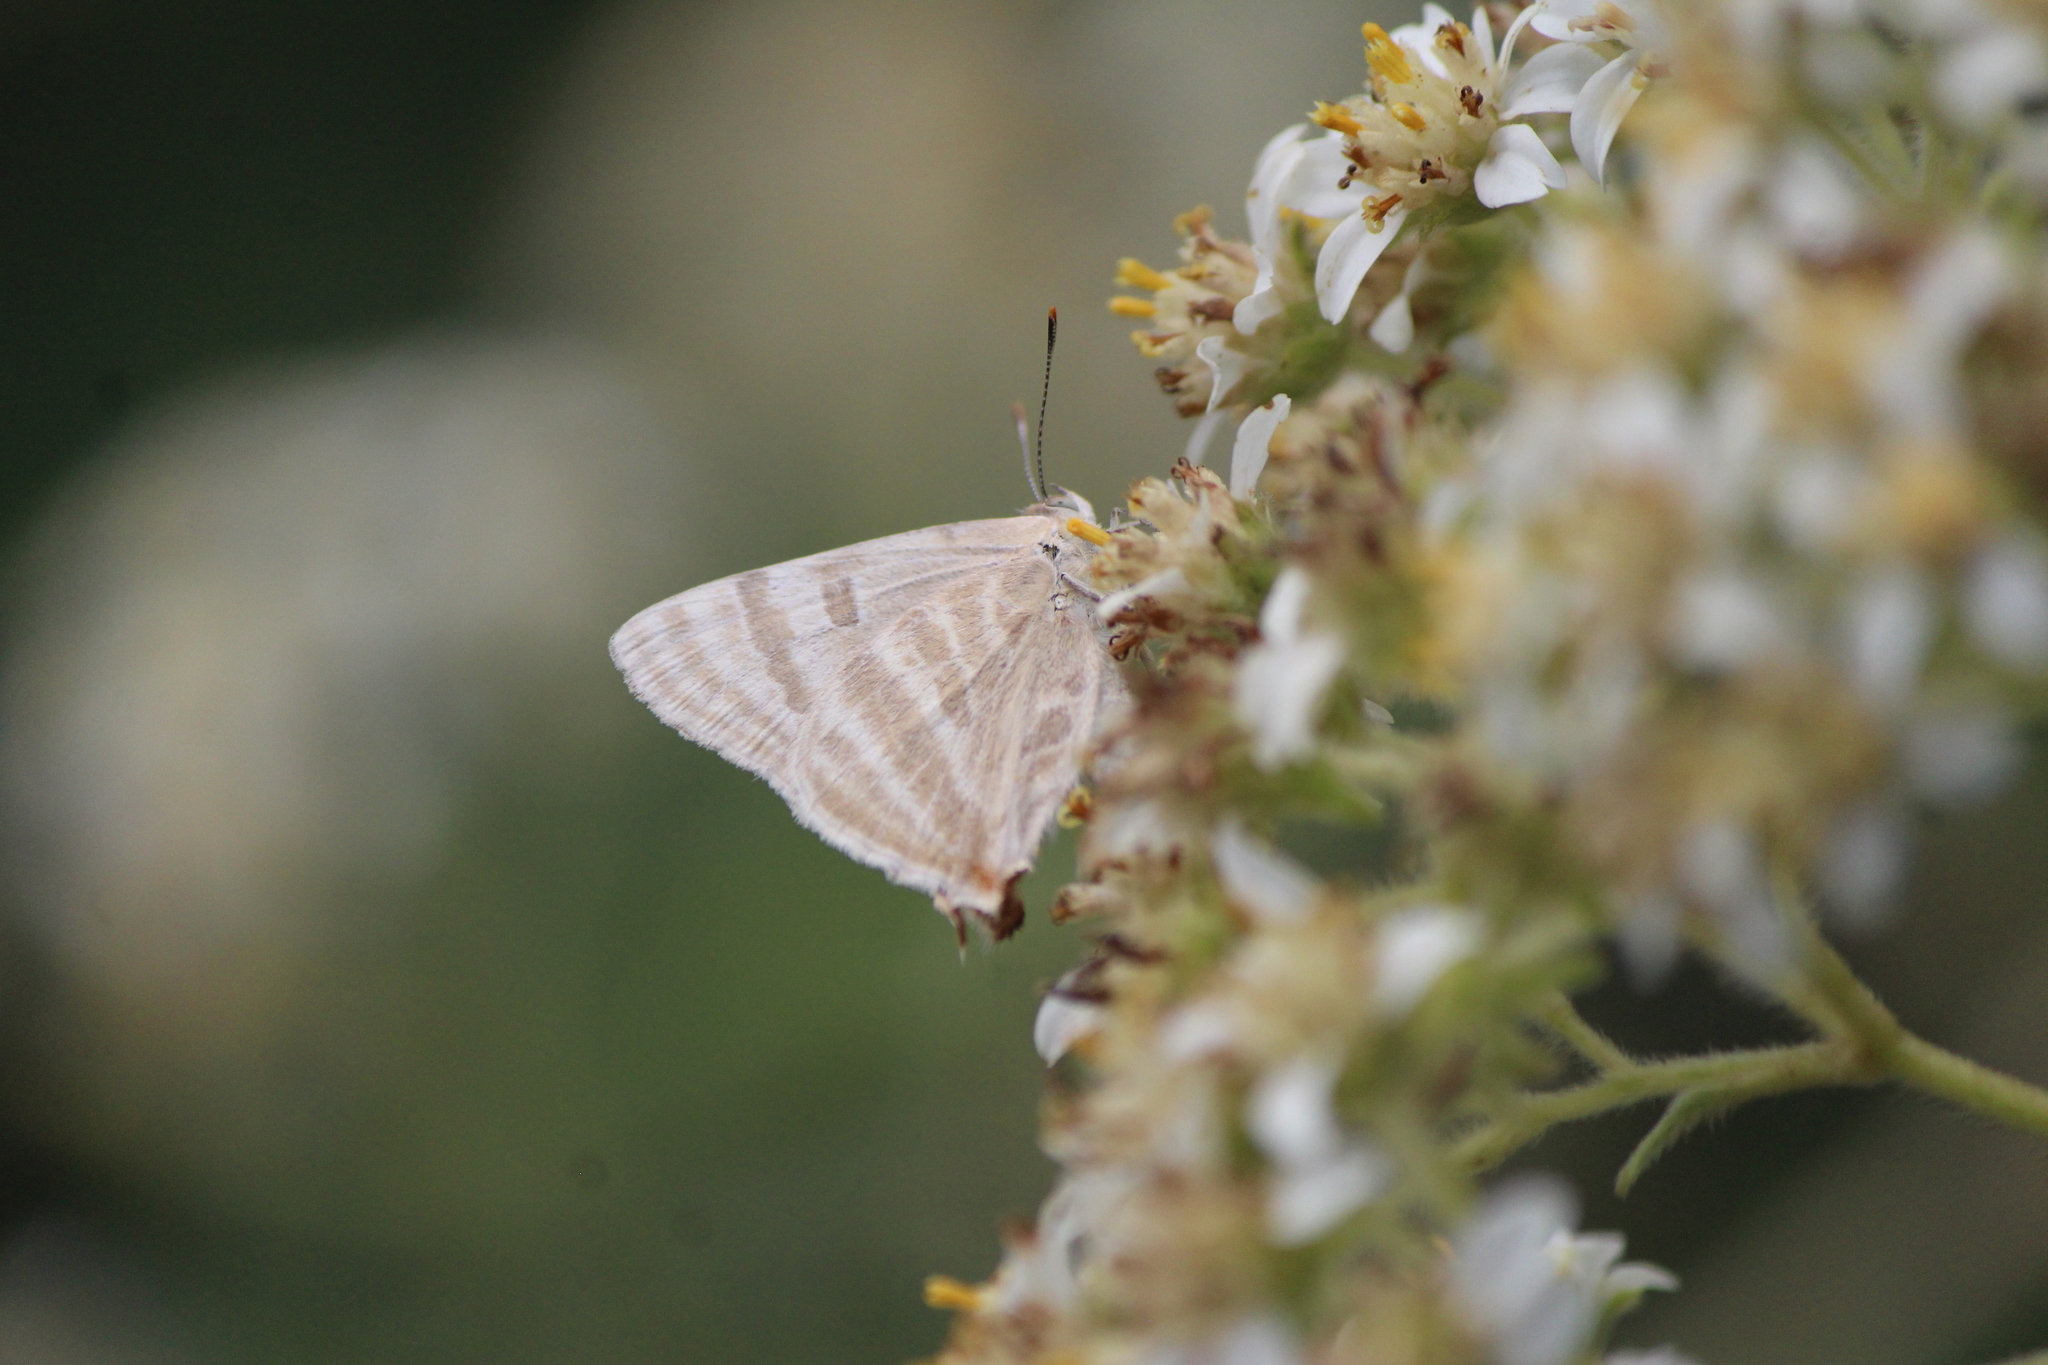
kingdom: Animalia
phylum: Arthropoda
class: Insecta
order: Lepidoptera
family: Lycaenidae
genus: Dolymorpha
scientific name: Dolymorpha jada
